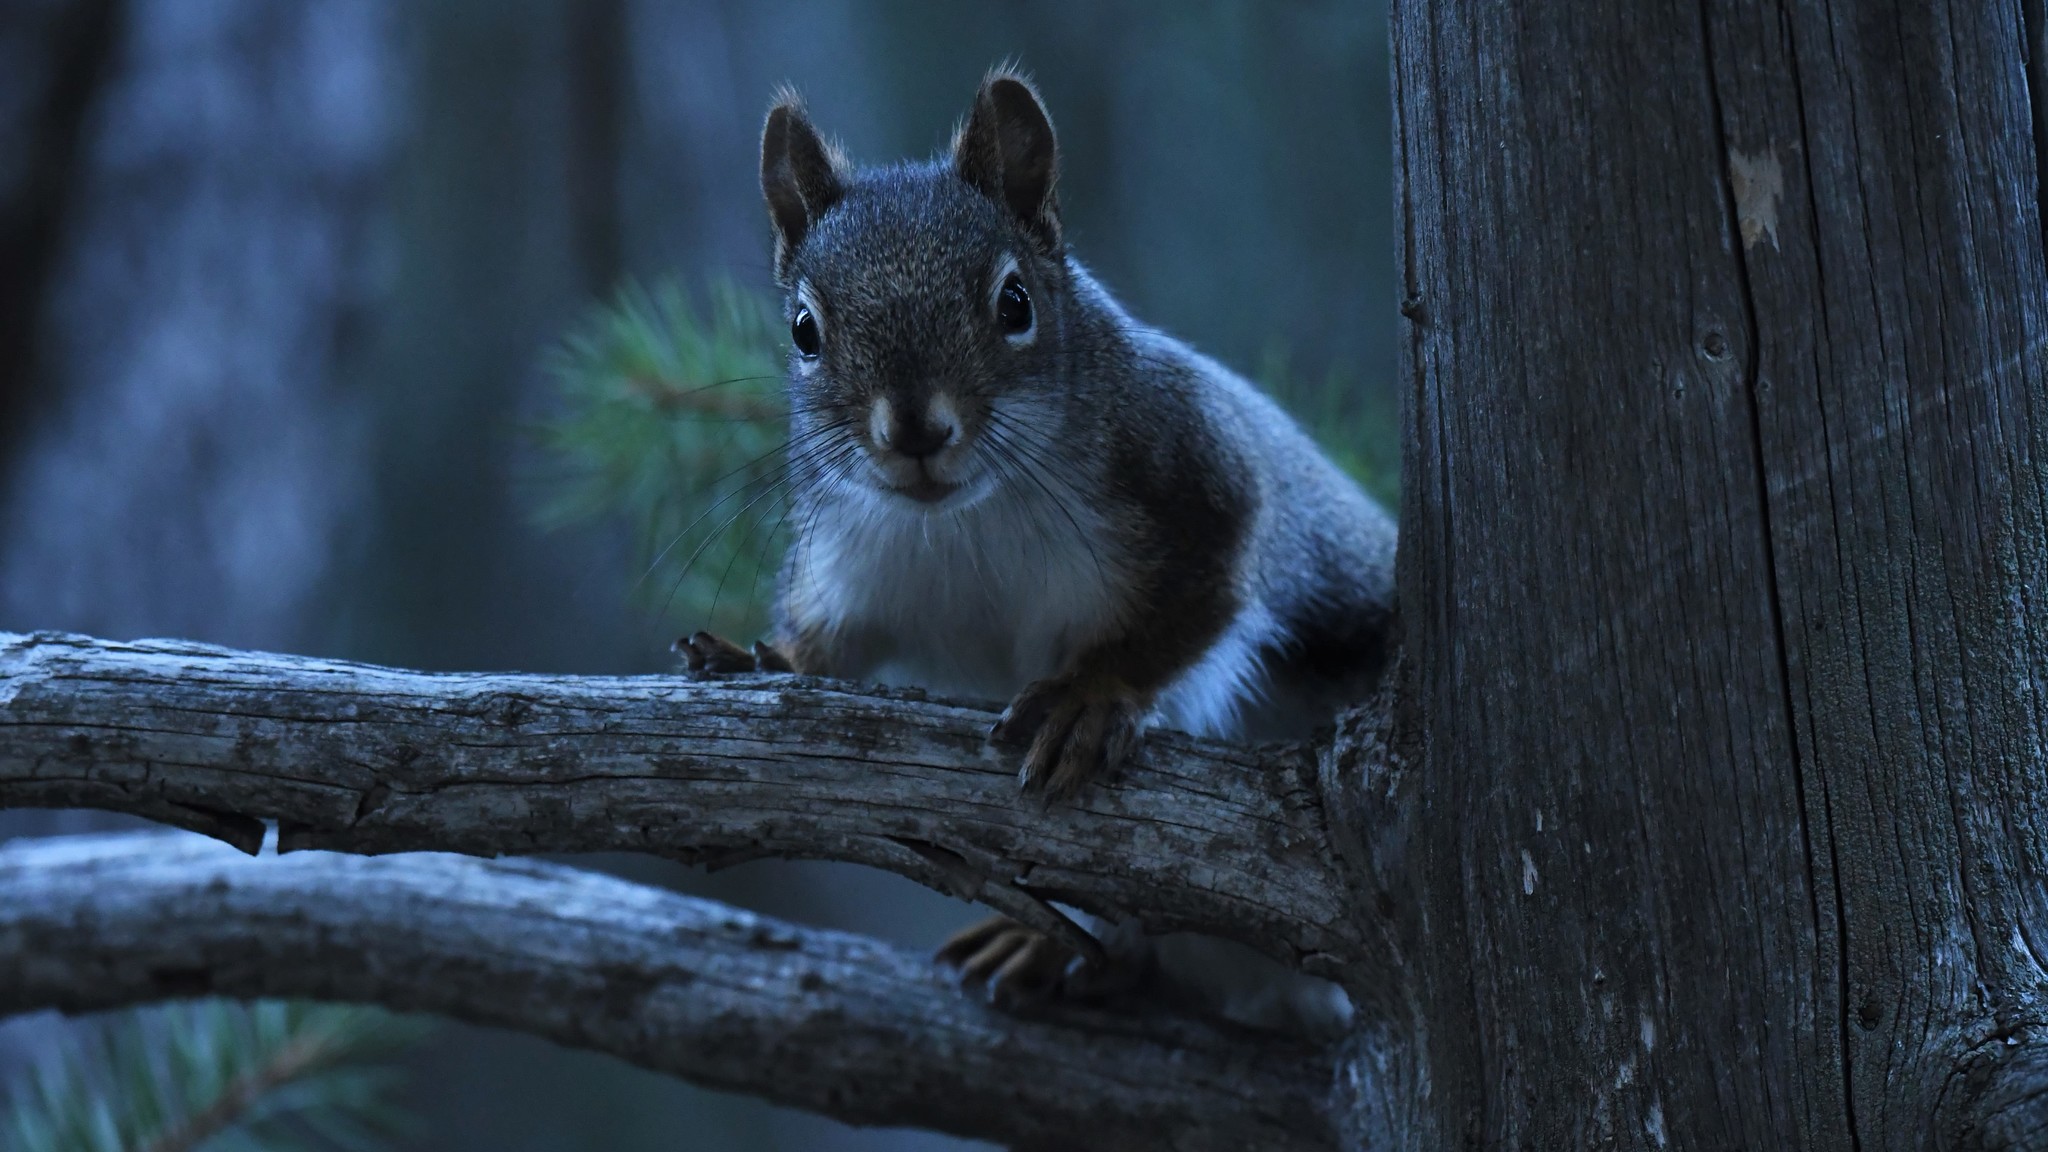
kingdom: Animalia
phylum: Chordata
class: Mammalia
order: Rodentia
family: Sciuridae
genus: Tamiasciurus
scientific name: Tamiasciurus hudsonicus
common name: Red squirrel
